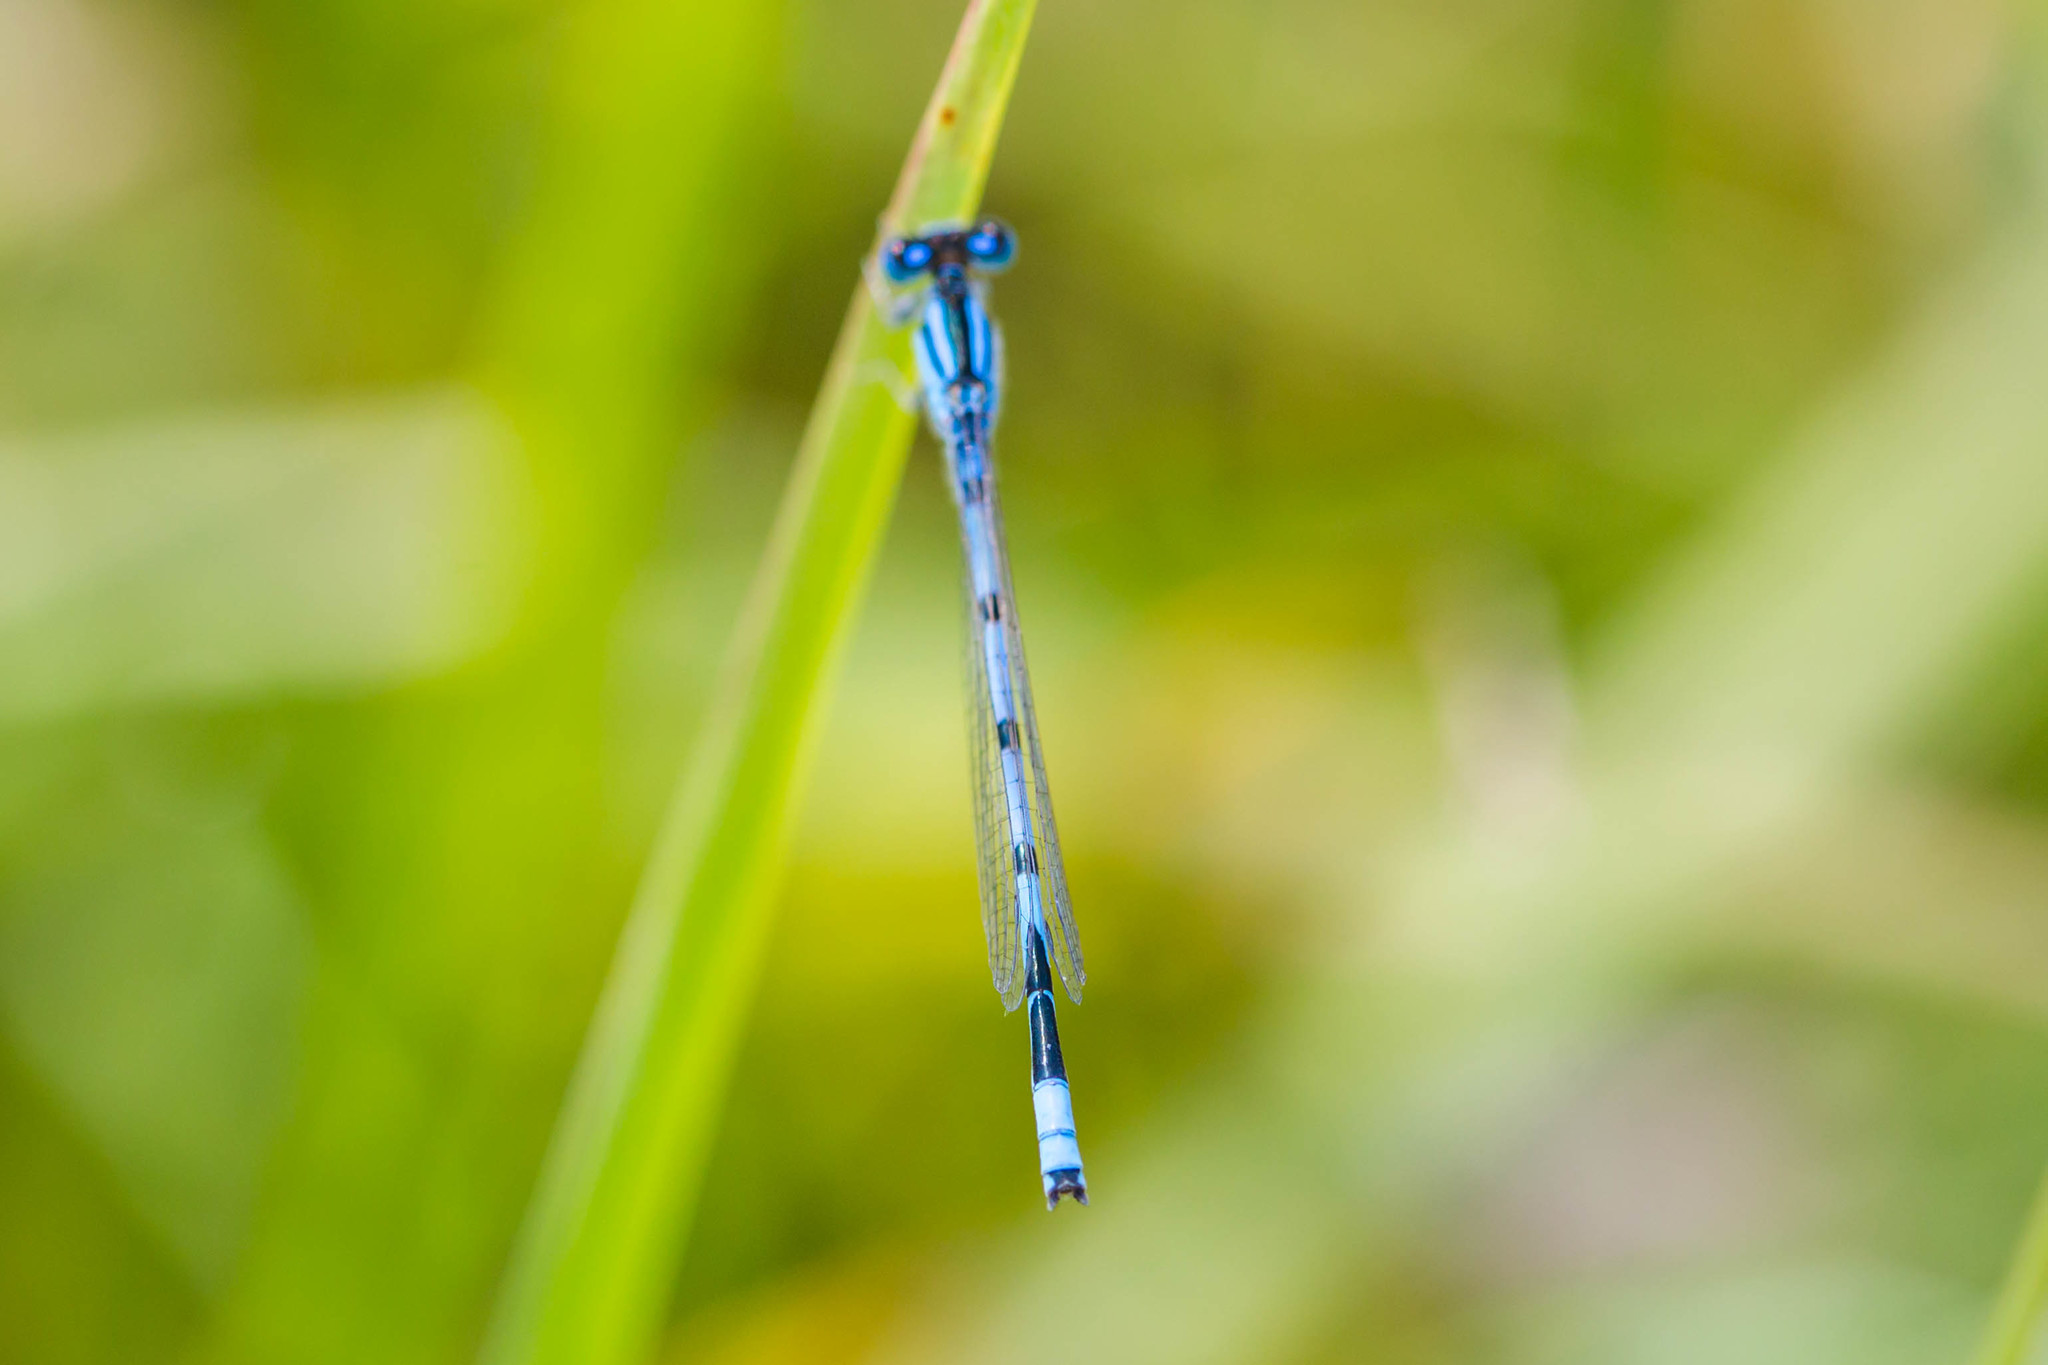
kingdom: Animalia
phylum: Arthropoda
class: Insecta
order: Odonata
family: Coenagrionidae
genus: Enallagma
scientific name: Enallagma civile
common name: Damselfly
